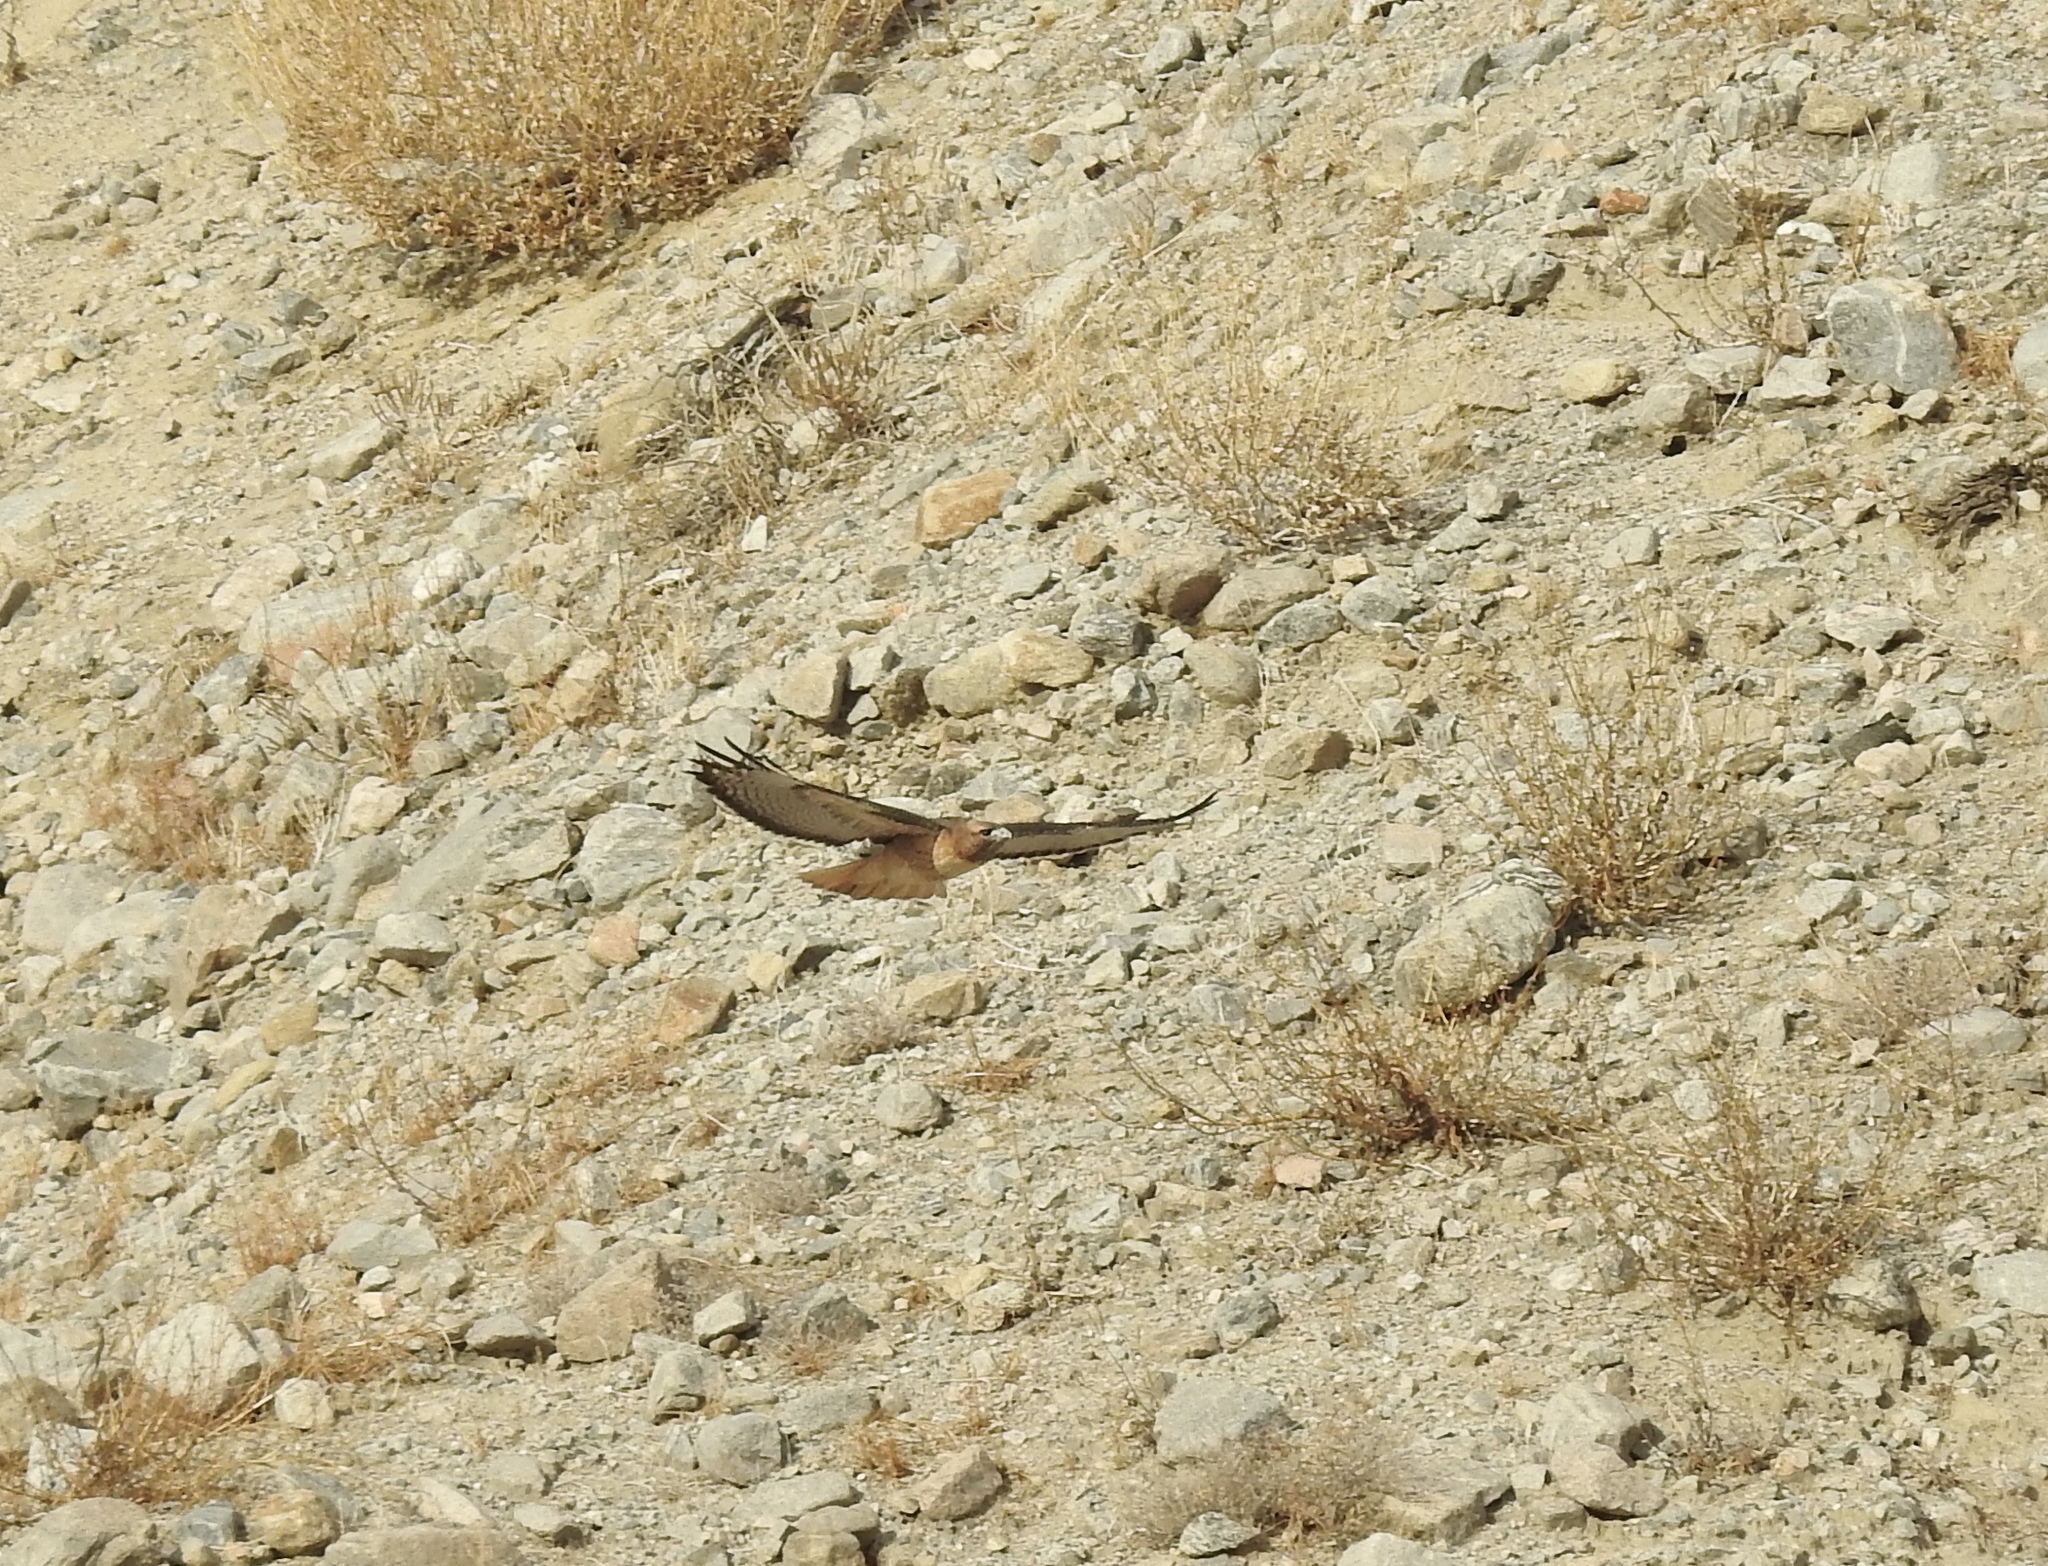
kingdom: Animalia
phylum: Chordata
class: Aves
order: Accipitriformes
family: Accipitridae
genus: Buteo
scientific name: Buteo jamaicensis
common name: Red-tailed hawk
